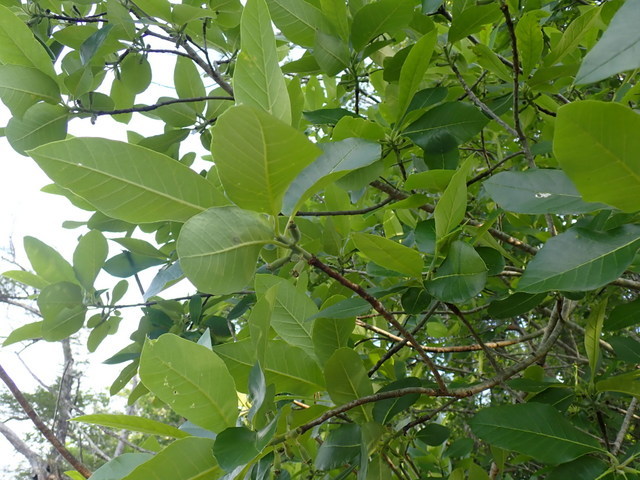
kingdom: Plantae
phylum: Tracheophyta
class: Magnoliopsida
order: Cornales
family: Nyssaceae
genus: Nyssa
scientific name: Nyssa ogeche
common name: Ogeechee tupelo
